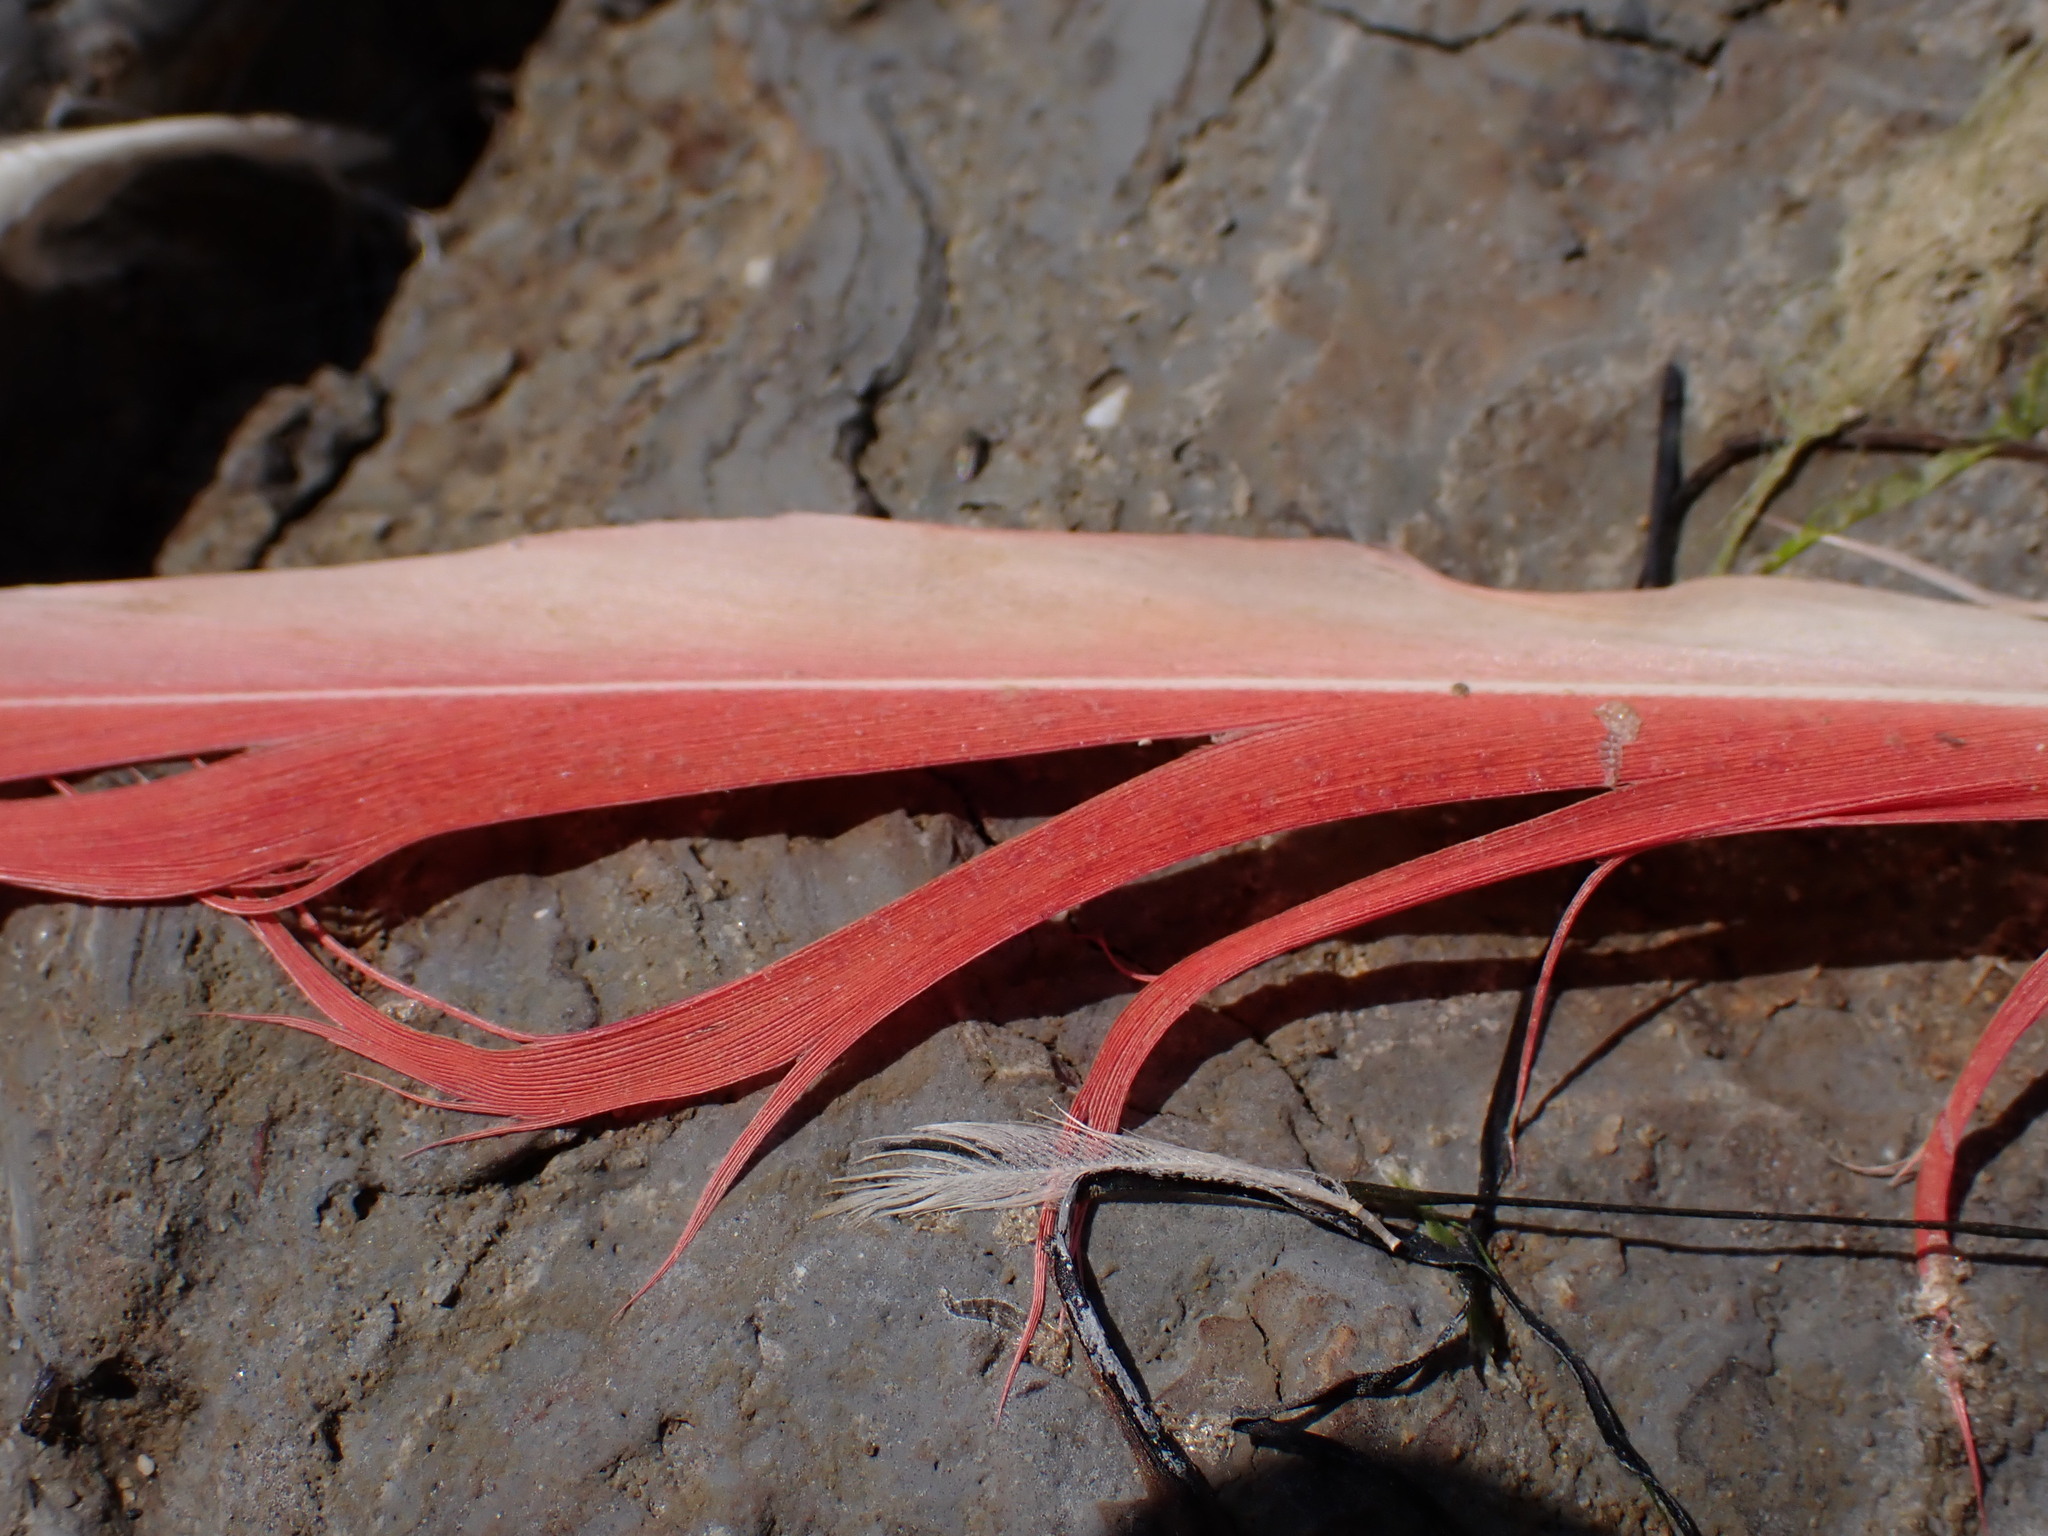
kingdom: Animalia
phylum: Chordata
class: Aves
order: Phoenicopteriformes
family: Phoenicopteridae
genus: Phoenicopterus
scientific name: Phoenicopterus roseus
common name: Greater flamingo
